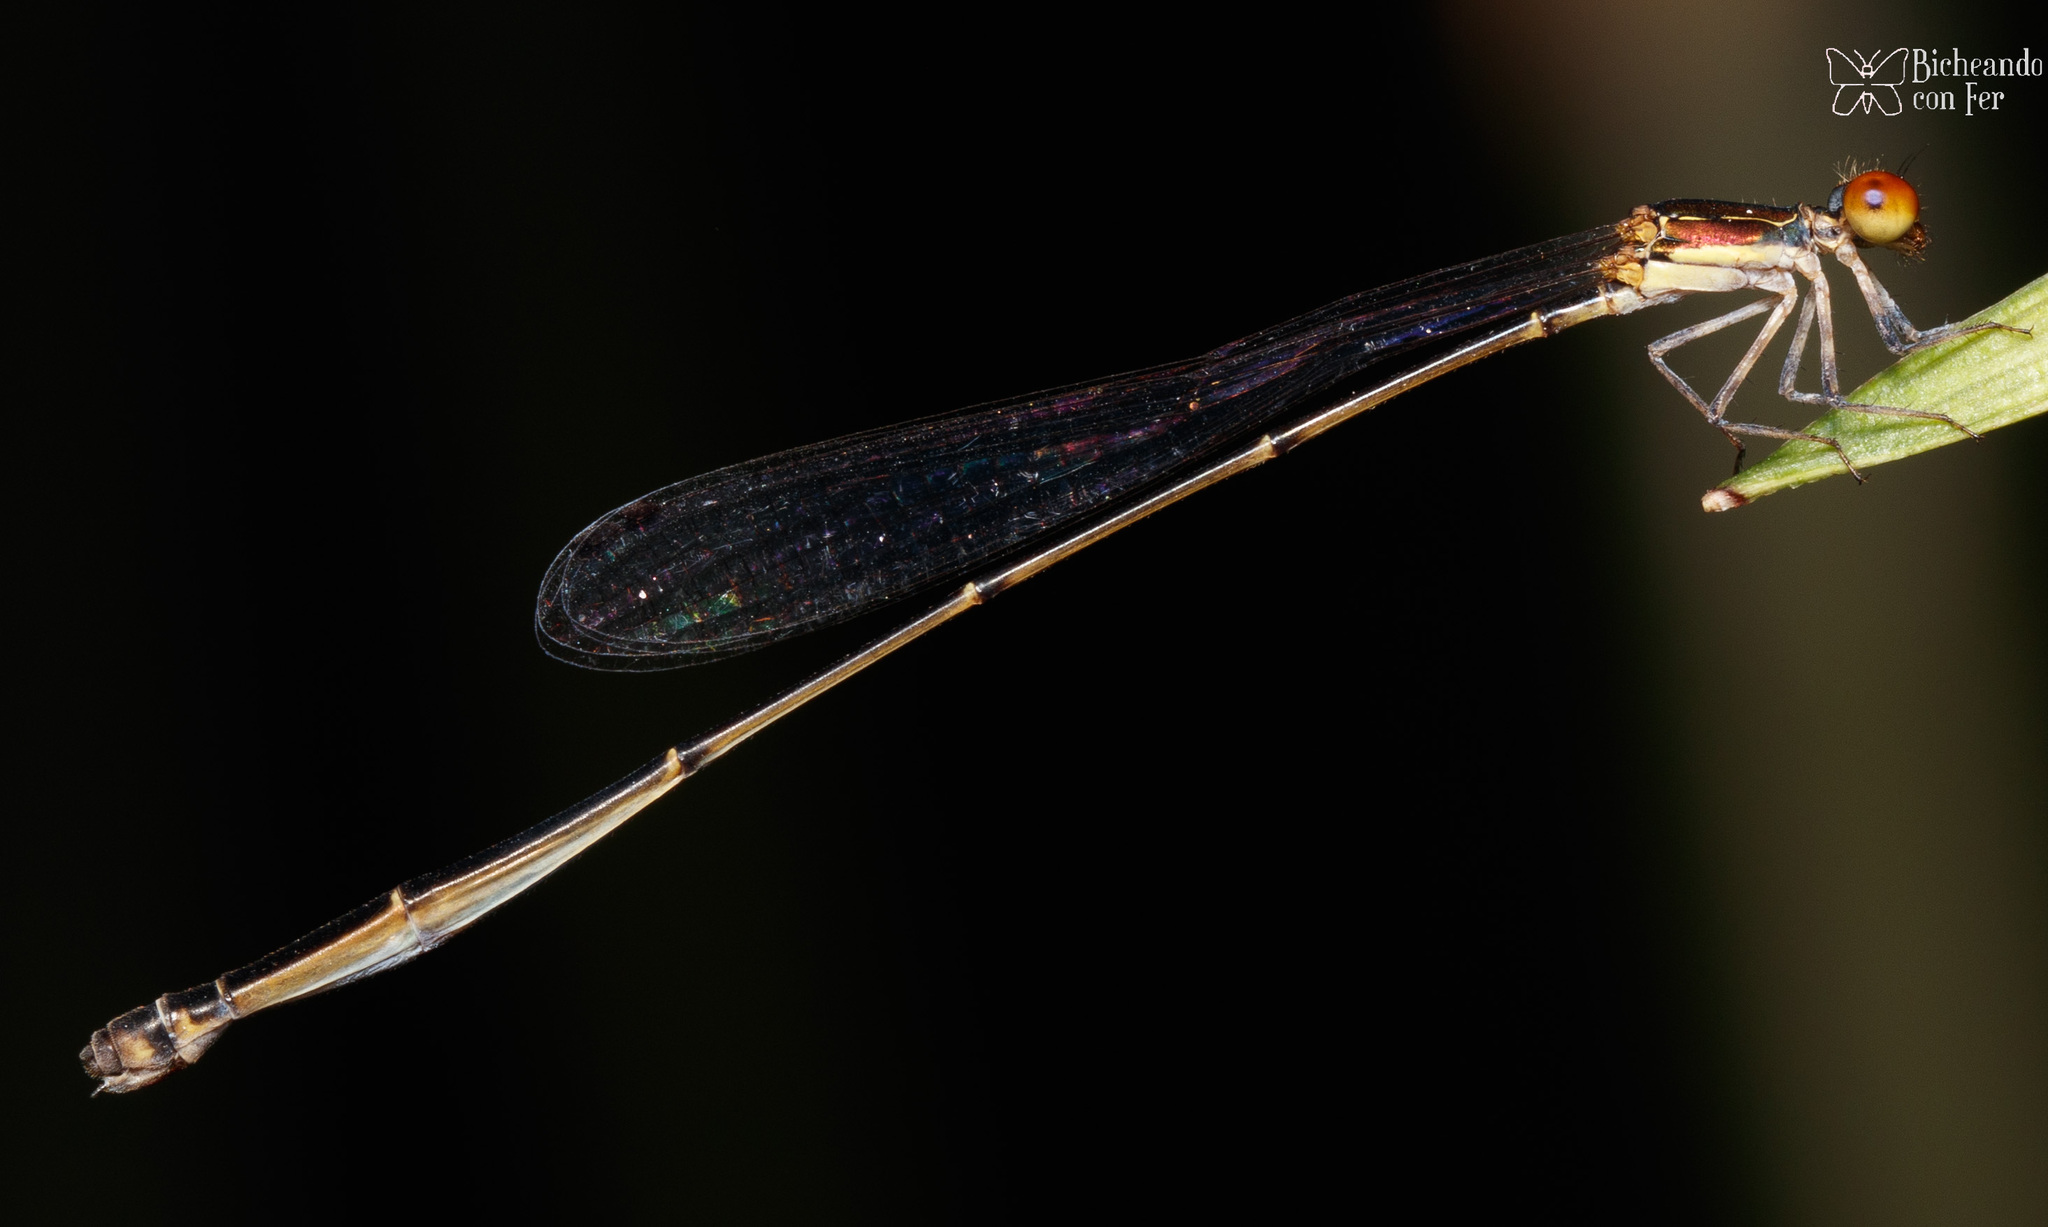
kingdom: Animalia
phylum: Arthropoda
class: Insecta
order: Odonata
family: Coenagrionidae
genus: Protoneura
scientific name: Protoneura corculum
